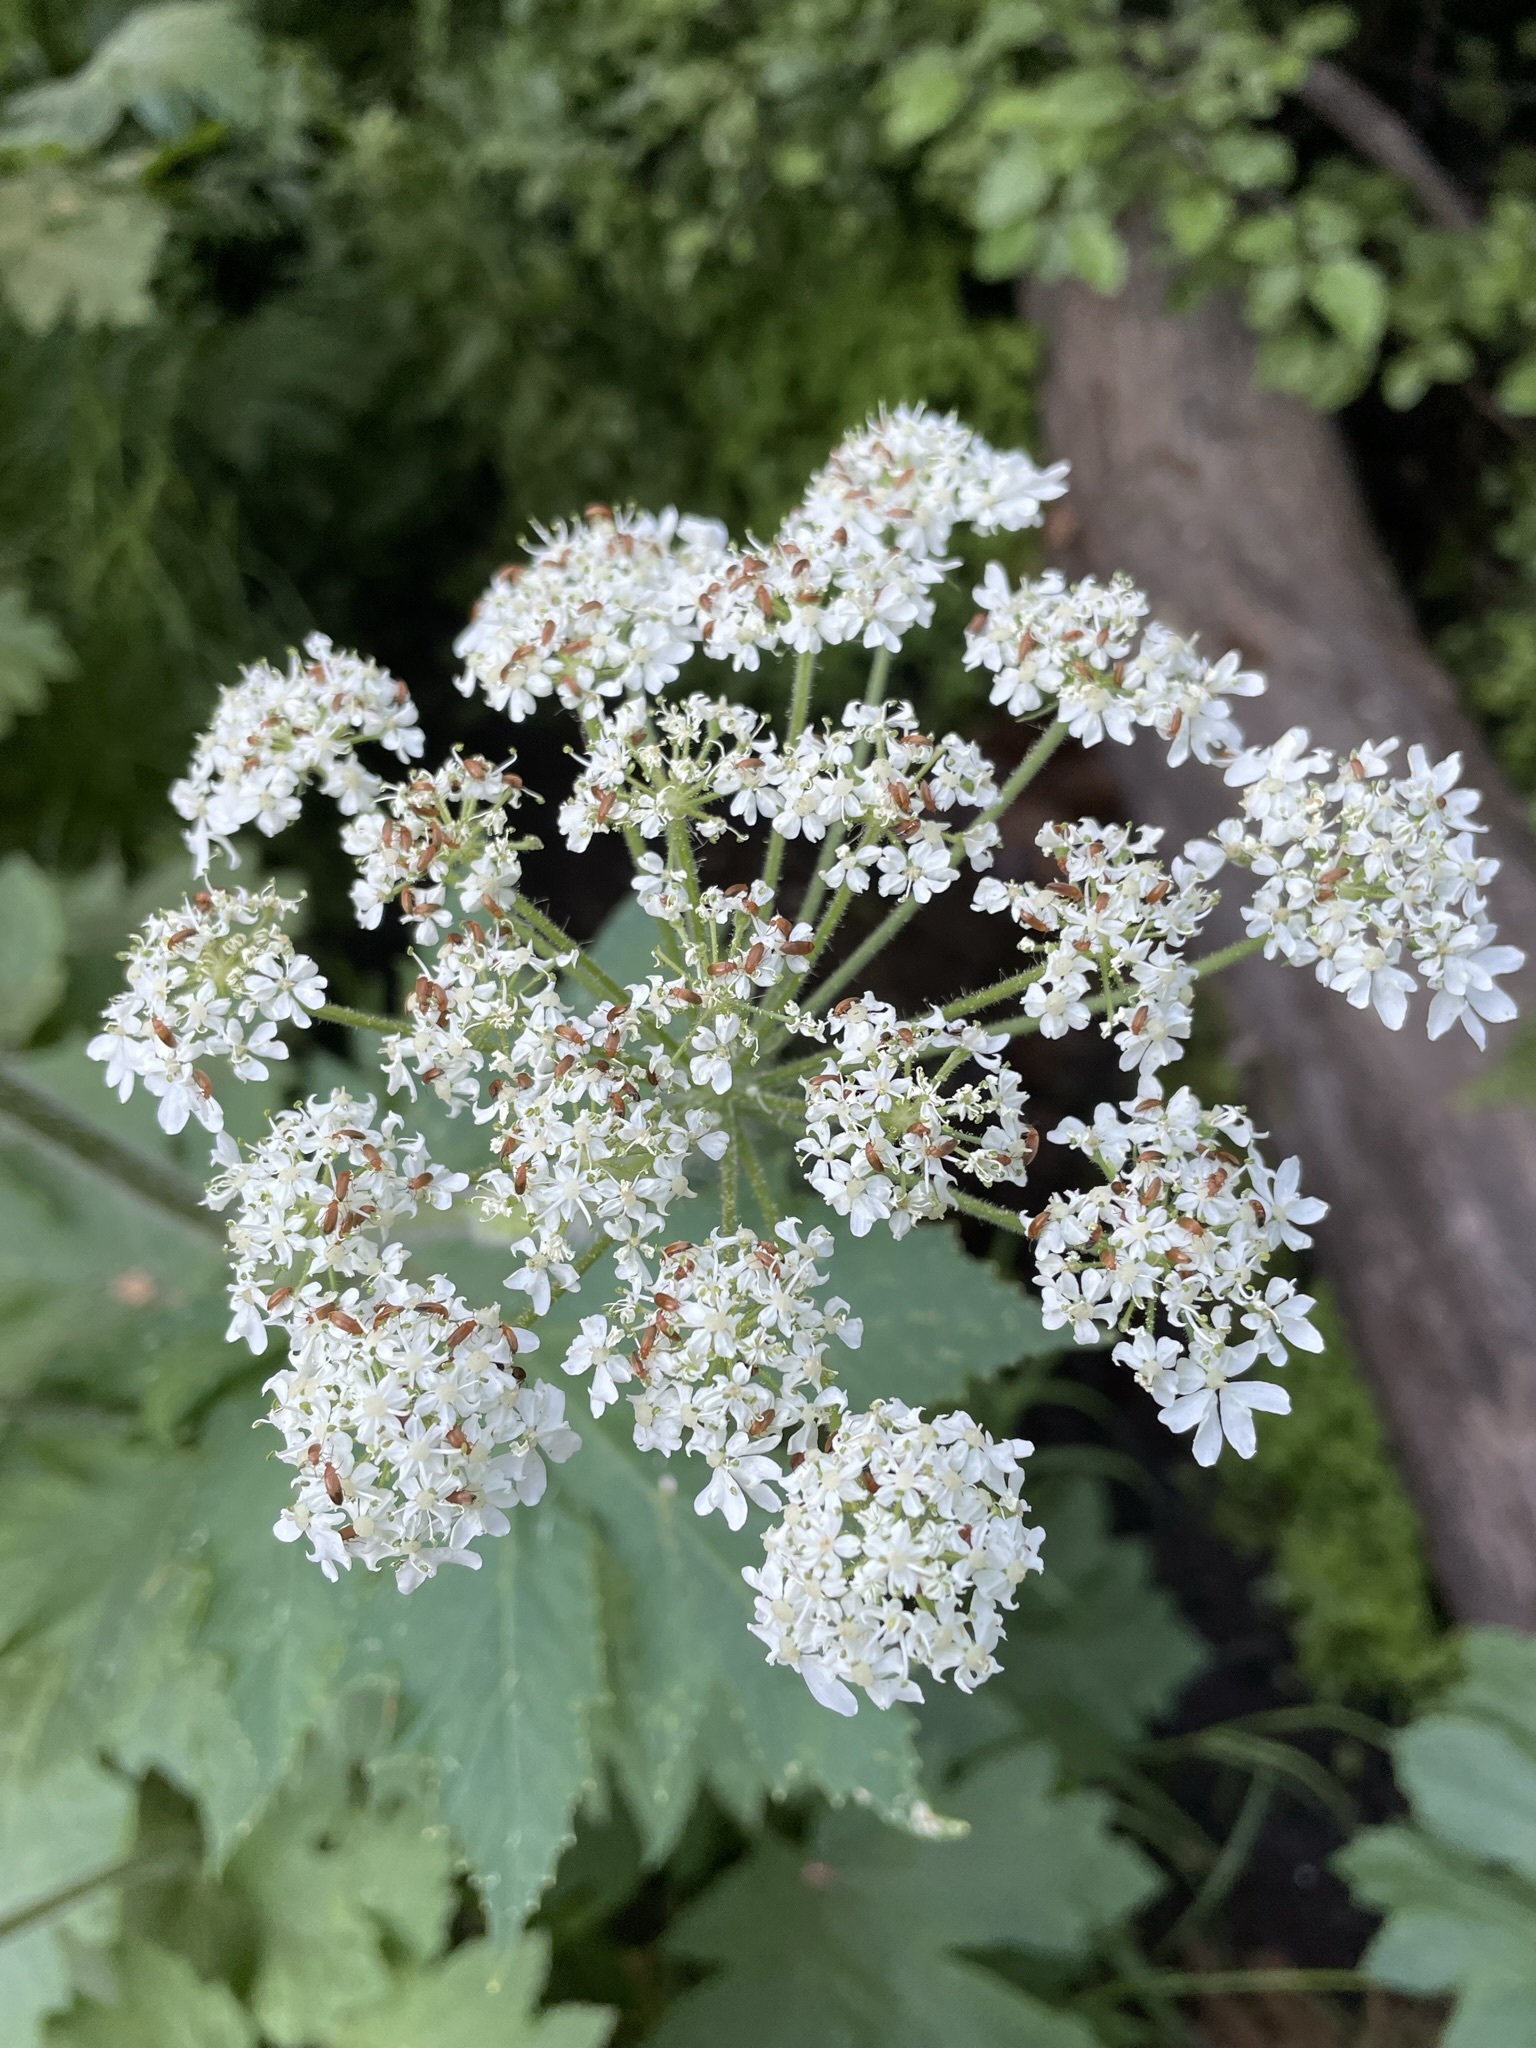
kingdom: Plantae
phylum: Tracheophyta
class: Magnoliopsida
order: Apiales
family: Apiaceae
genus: Heracleum
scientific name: Heracleum maximum
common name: American cow parsnip
